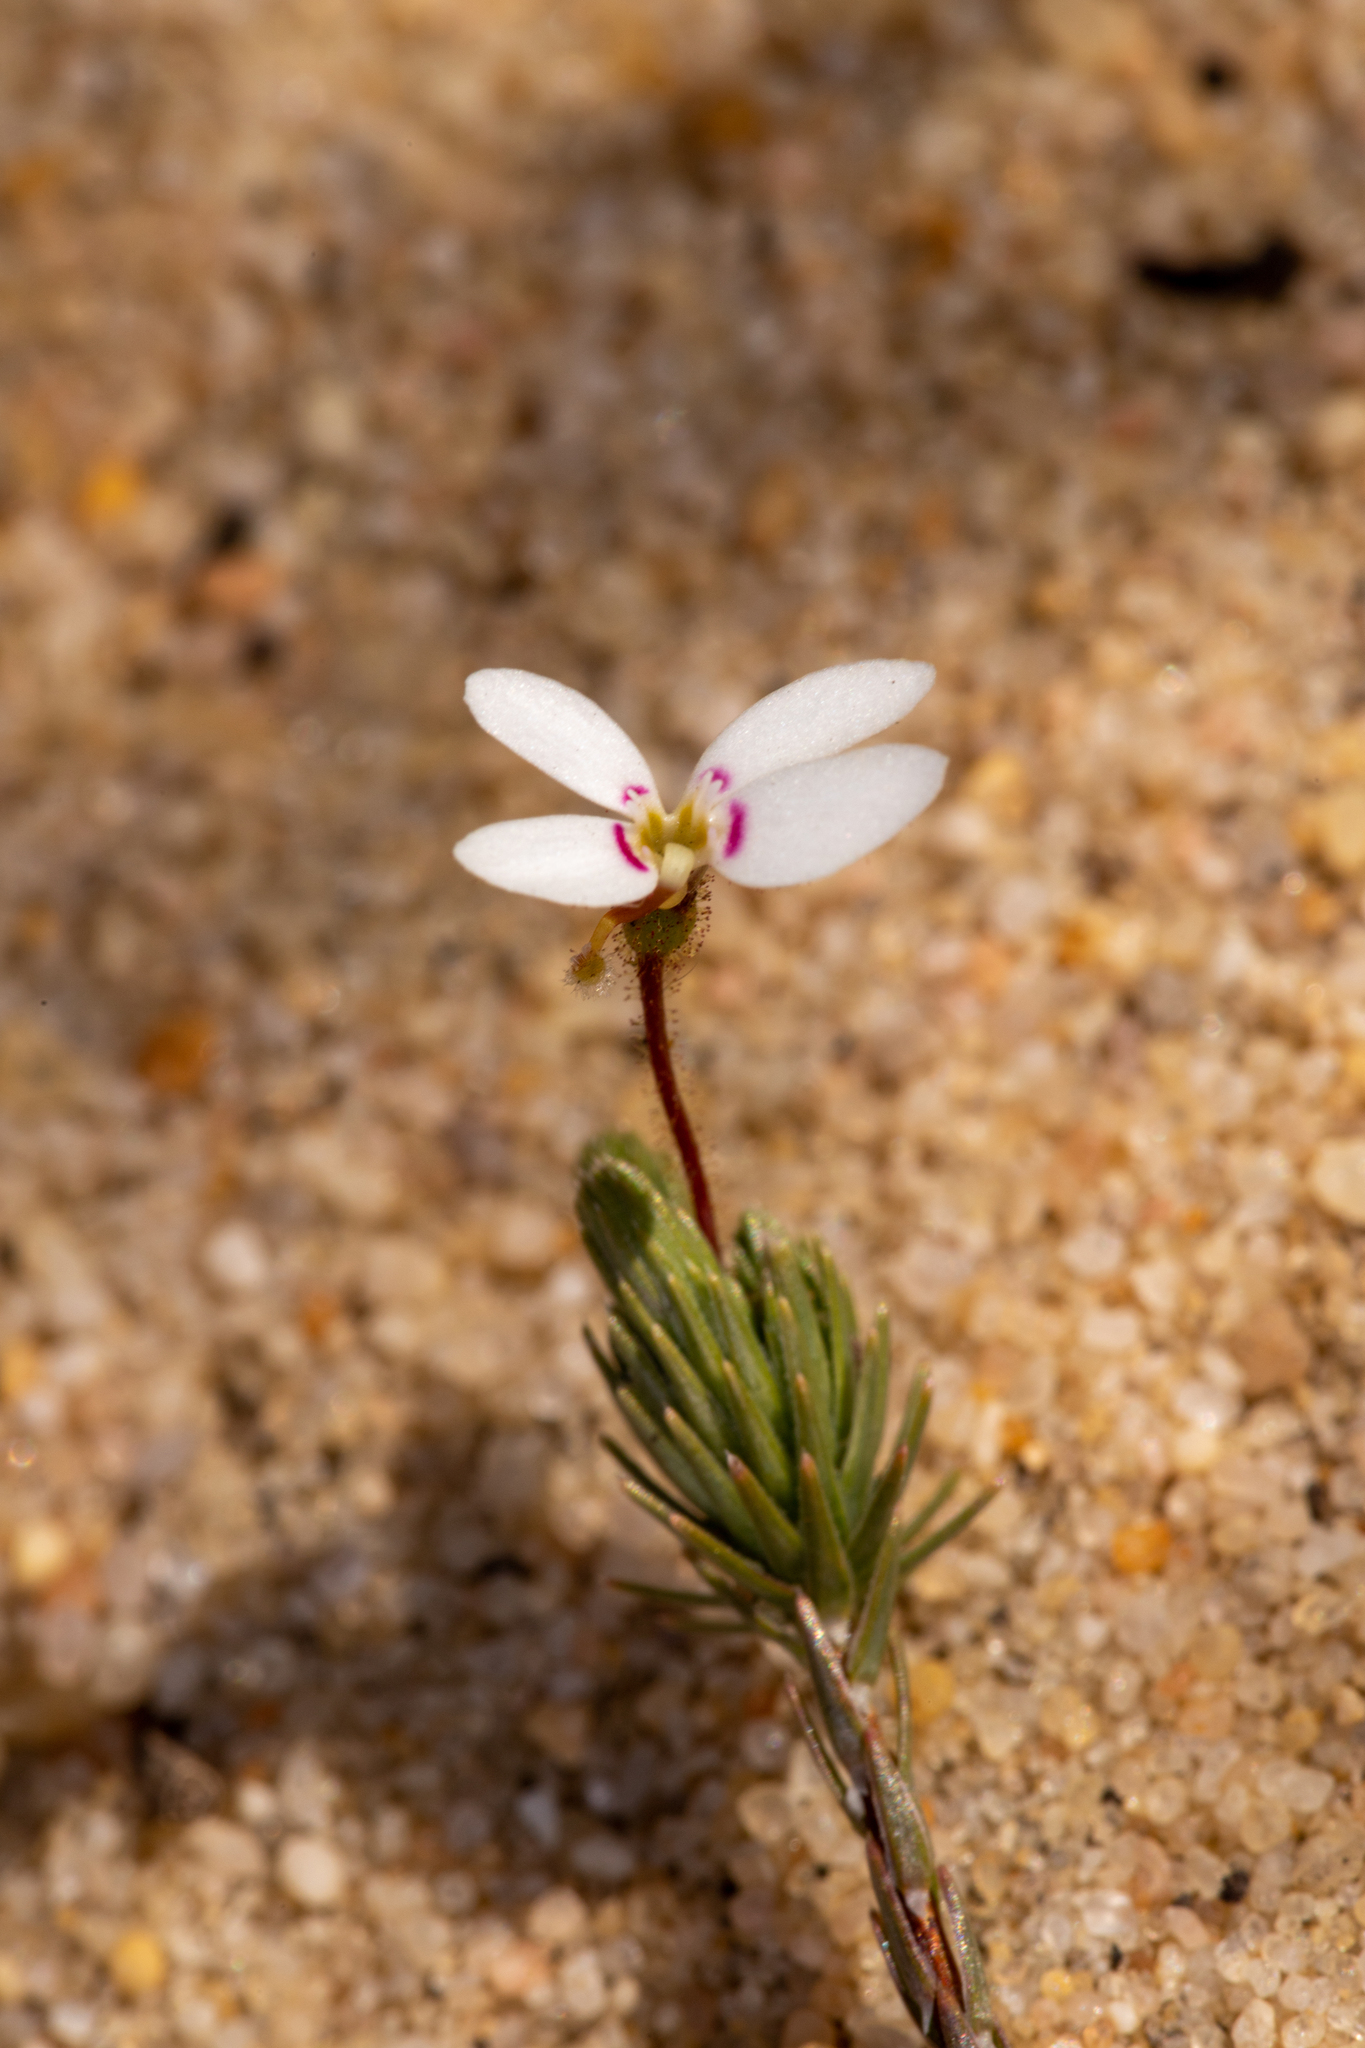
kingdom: Plantae
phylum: Tracheophyta
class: Magnoliopsida
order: Asterales
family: Stylidiaceae
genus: Stylidium
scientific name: Stylidium repens
